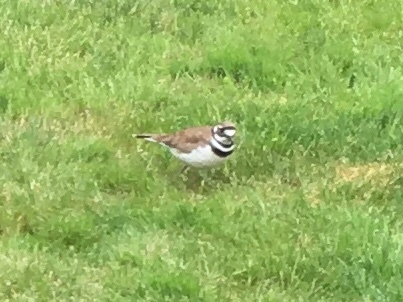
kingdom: Animalia
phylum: Chordata
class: Aves
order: Charadriiformes
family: Charadriidae
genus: Charadrius
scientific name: Charadrius vociferus
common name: Killdeer
